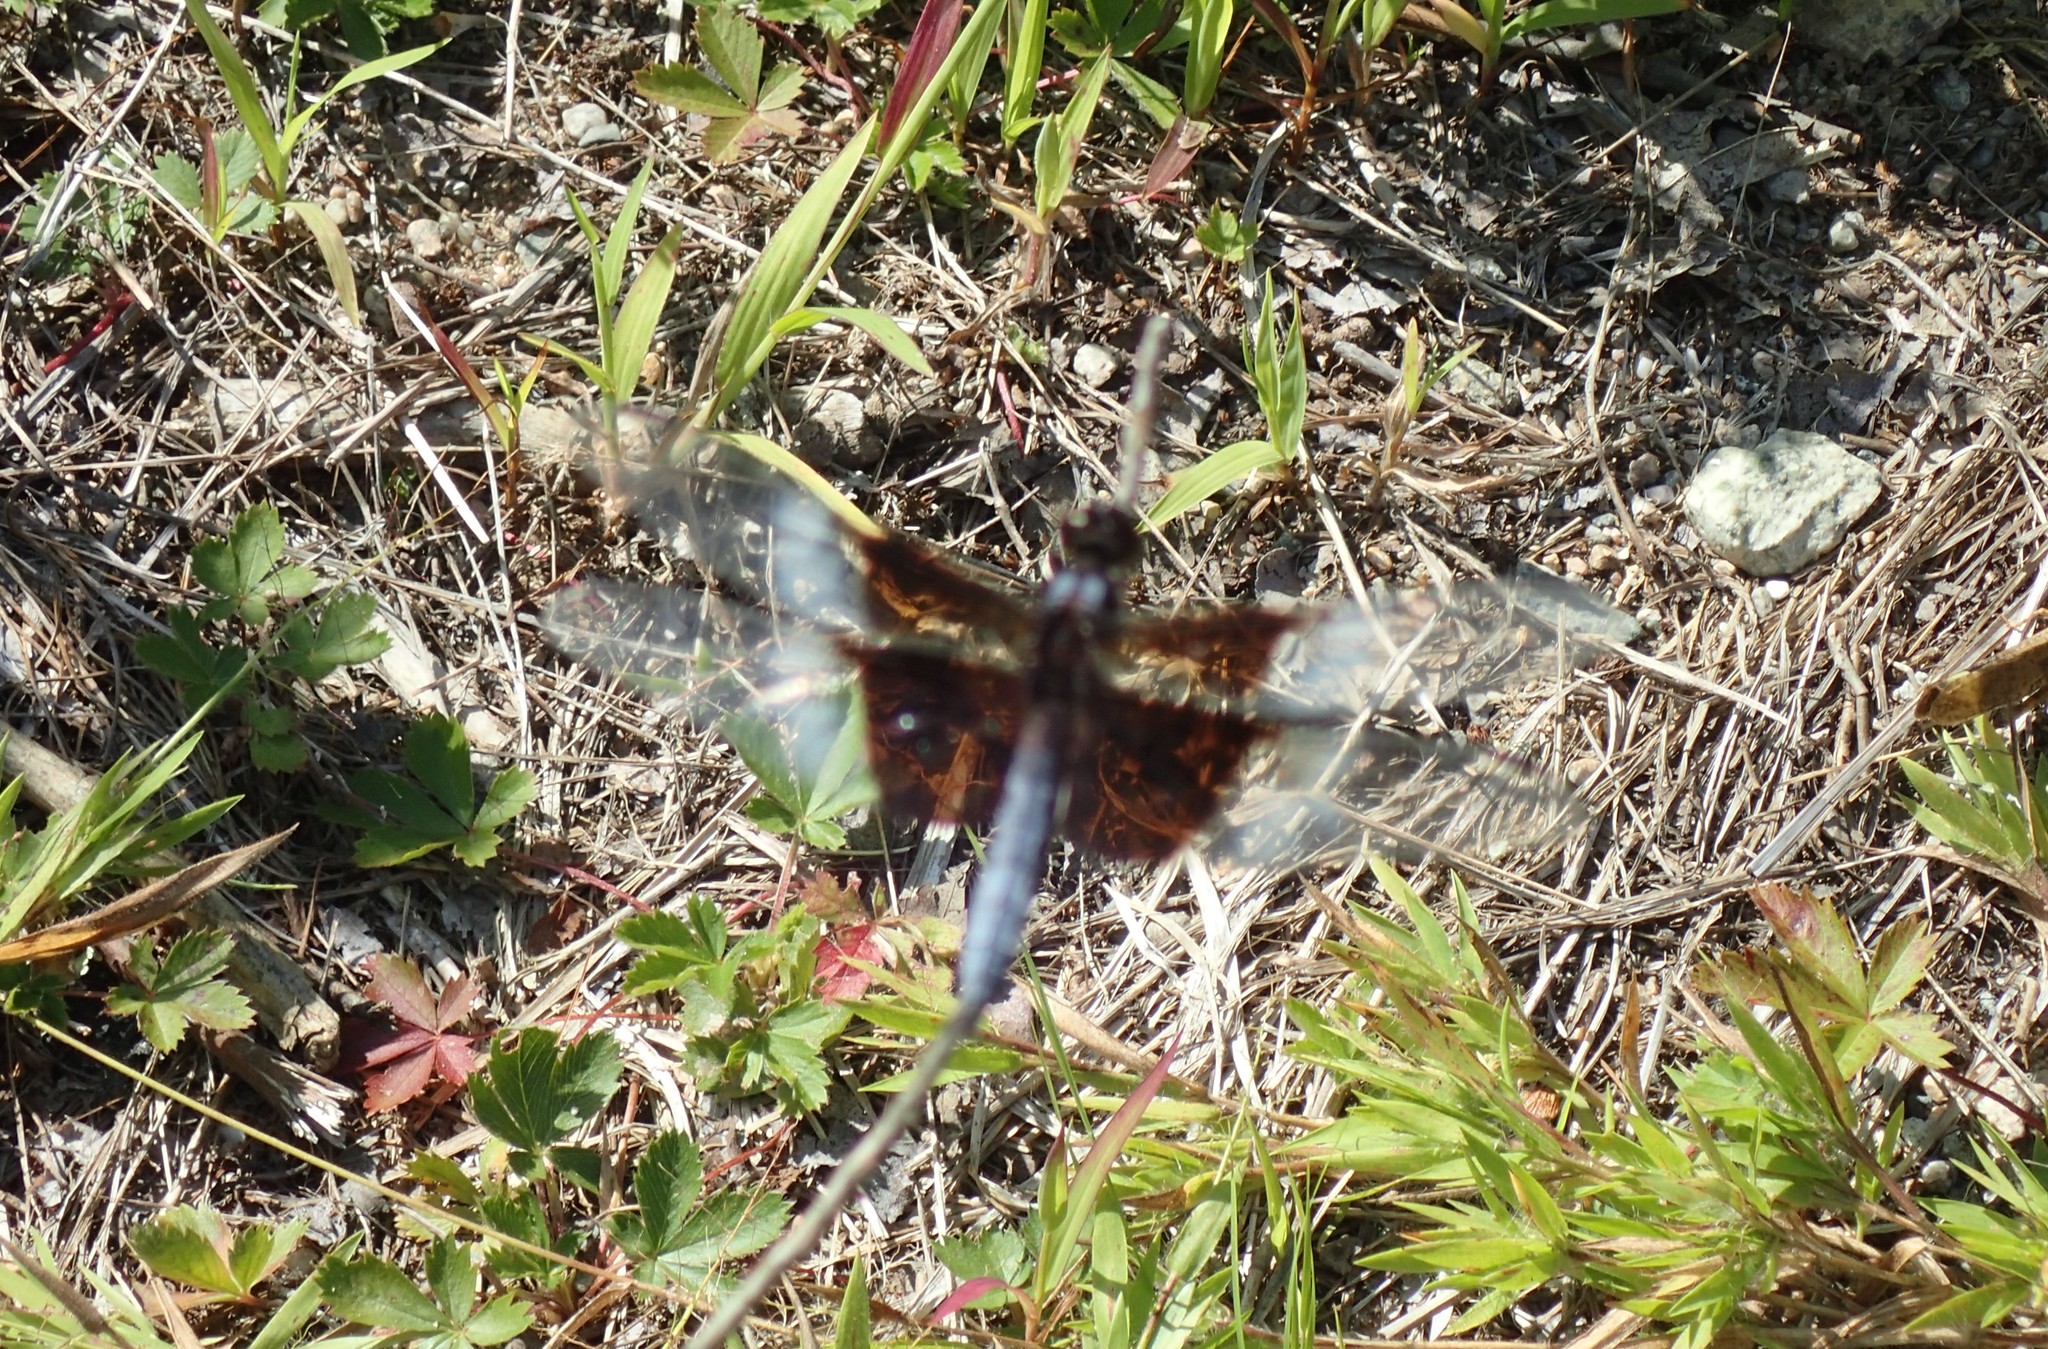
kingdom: Animalia
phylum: Arthropoda
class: Insecta
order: Odonata
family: Libellulidae
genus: Libellula
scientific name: Libellula luctuosa
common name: Widow skimmer
